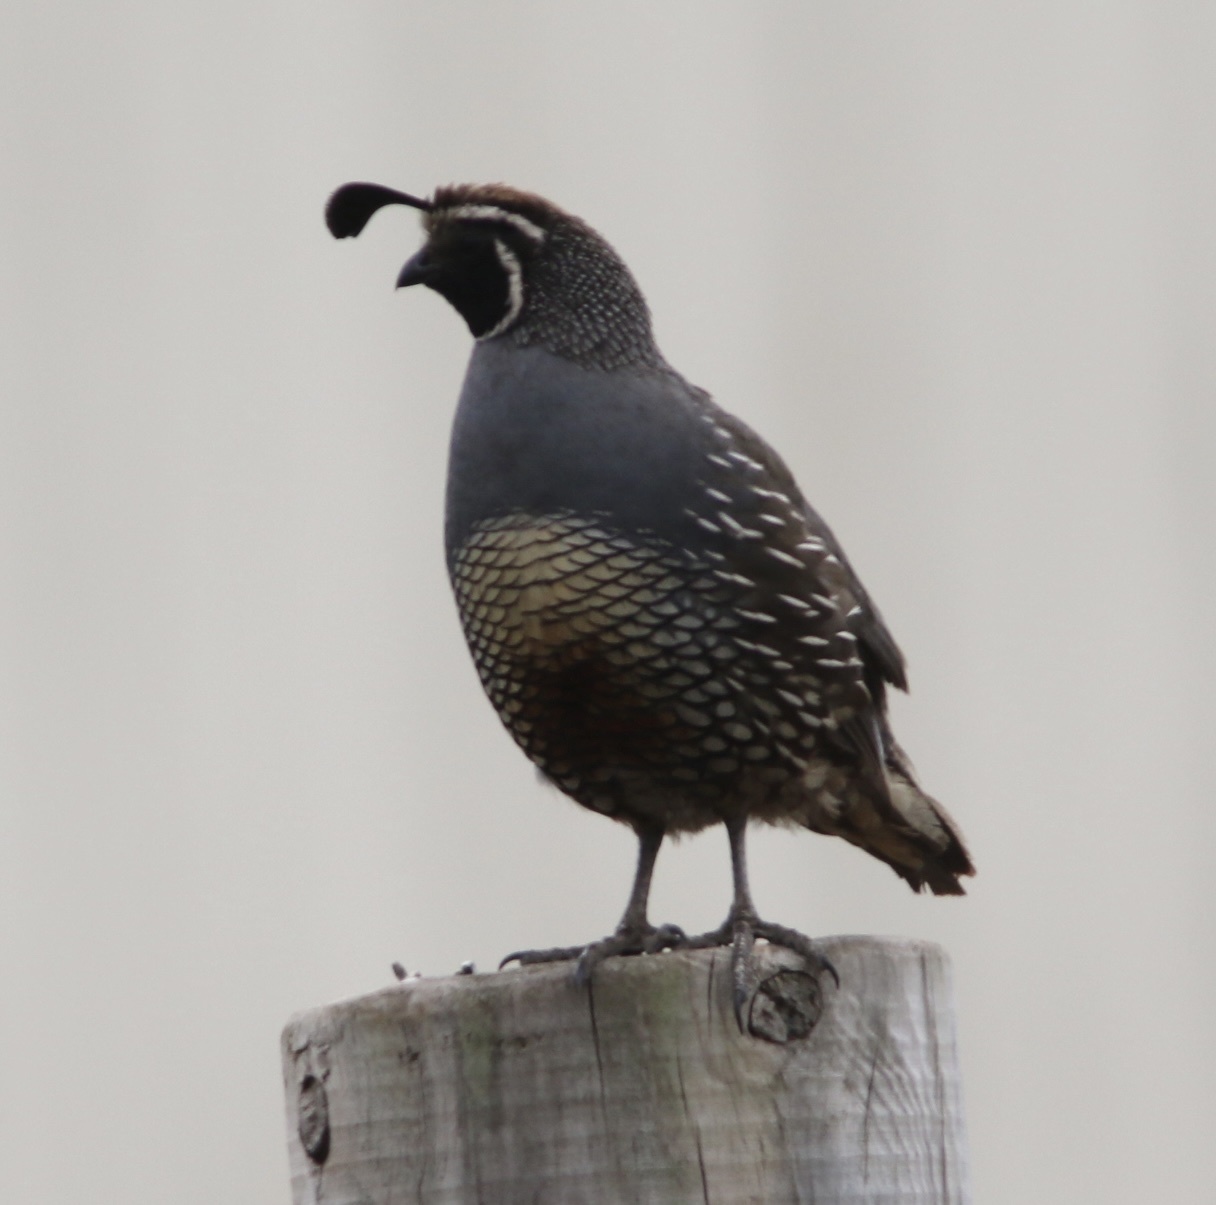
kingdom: Animalia
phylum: Chordata
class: Aves
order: Galliformes
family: Odontophoridae
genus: Callipepla
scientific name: Callipepla californica
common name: California quail
